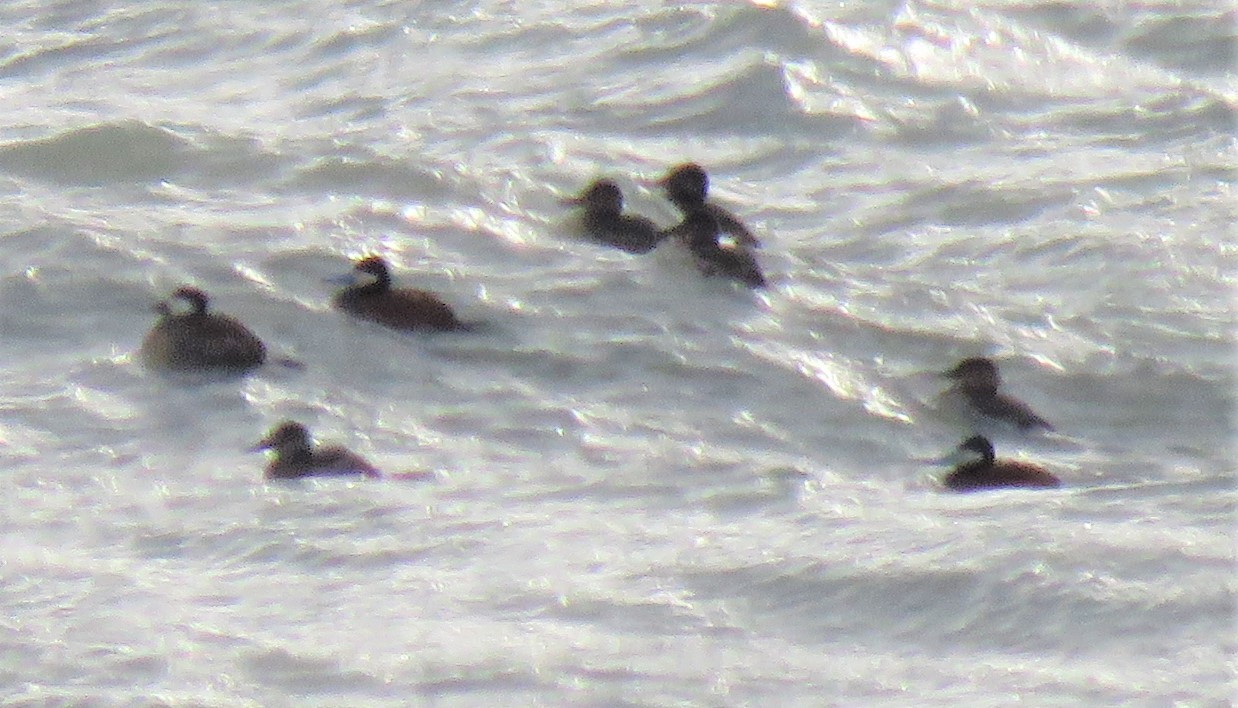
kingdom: Animalia
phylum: Chordata
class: Aves
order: Anseriformes
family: Anatidae
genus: Oxyura
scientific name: Oxyura jamaicensis
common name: Ruddy duck
